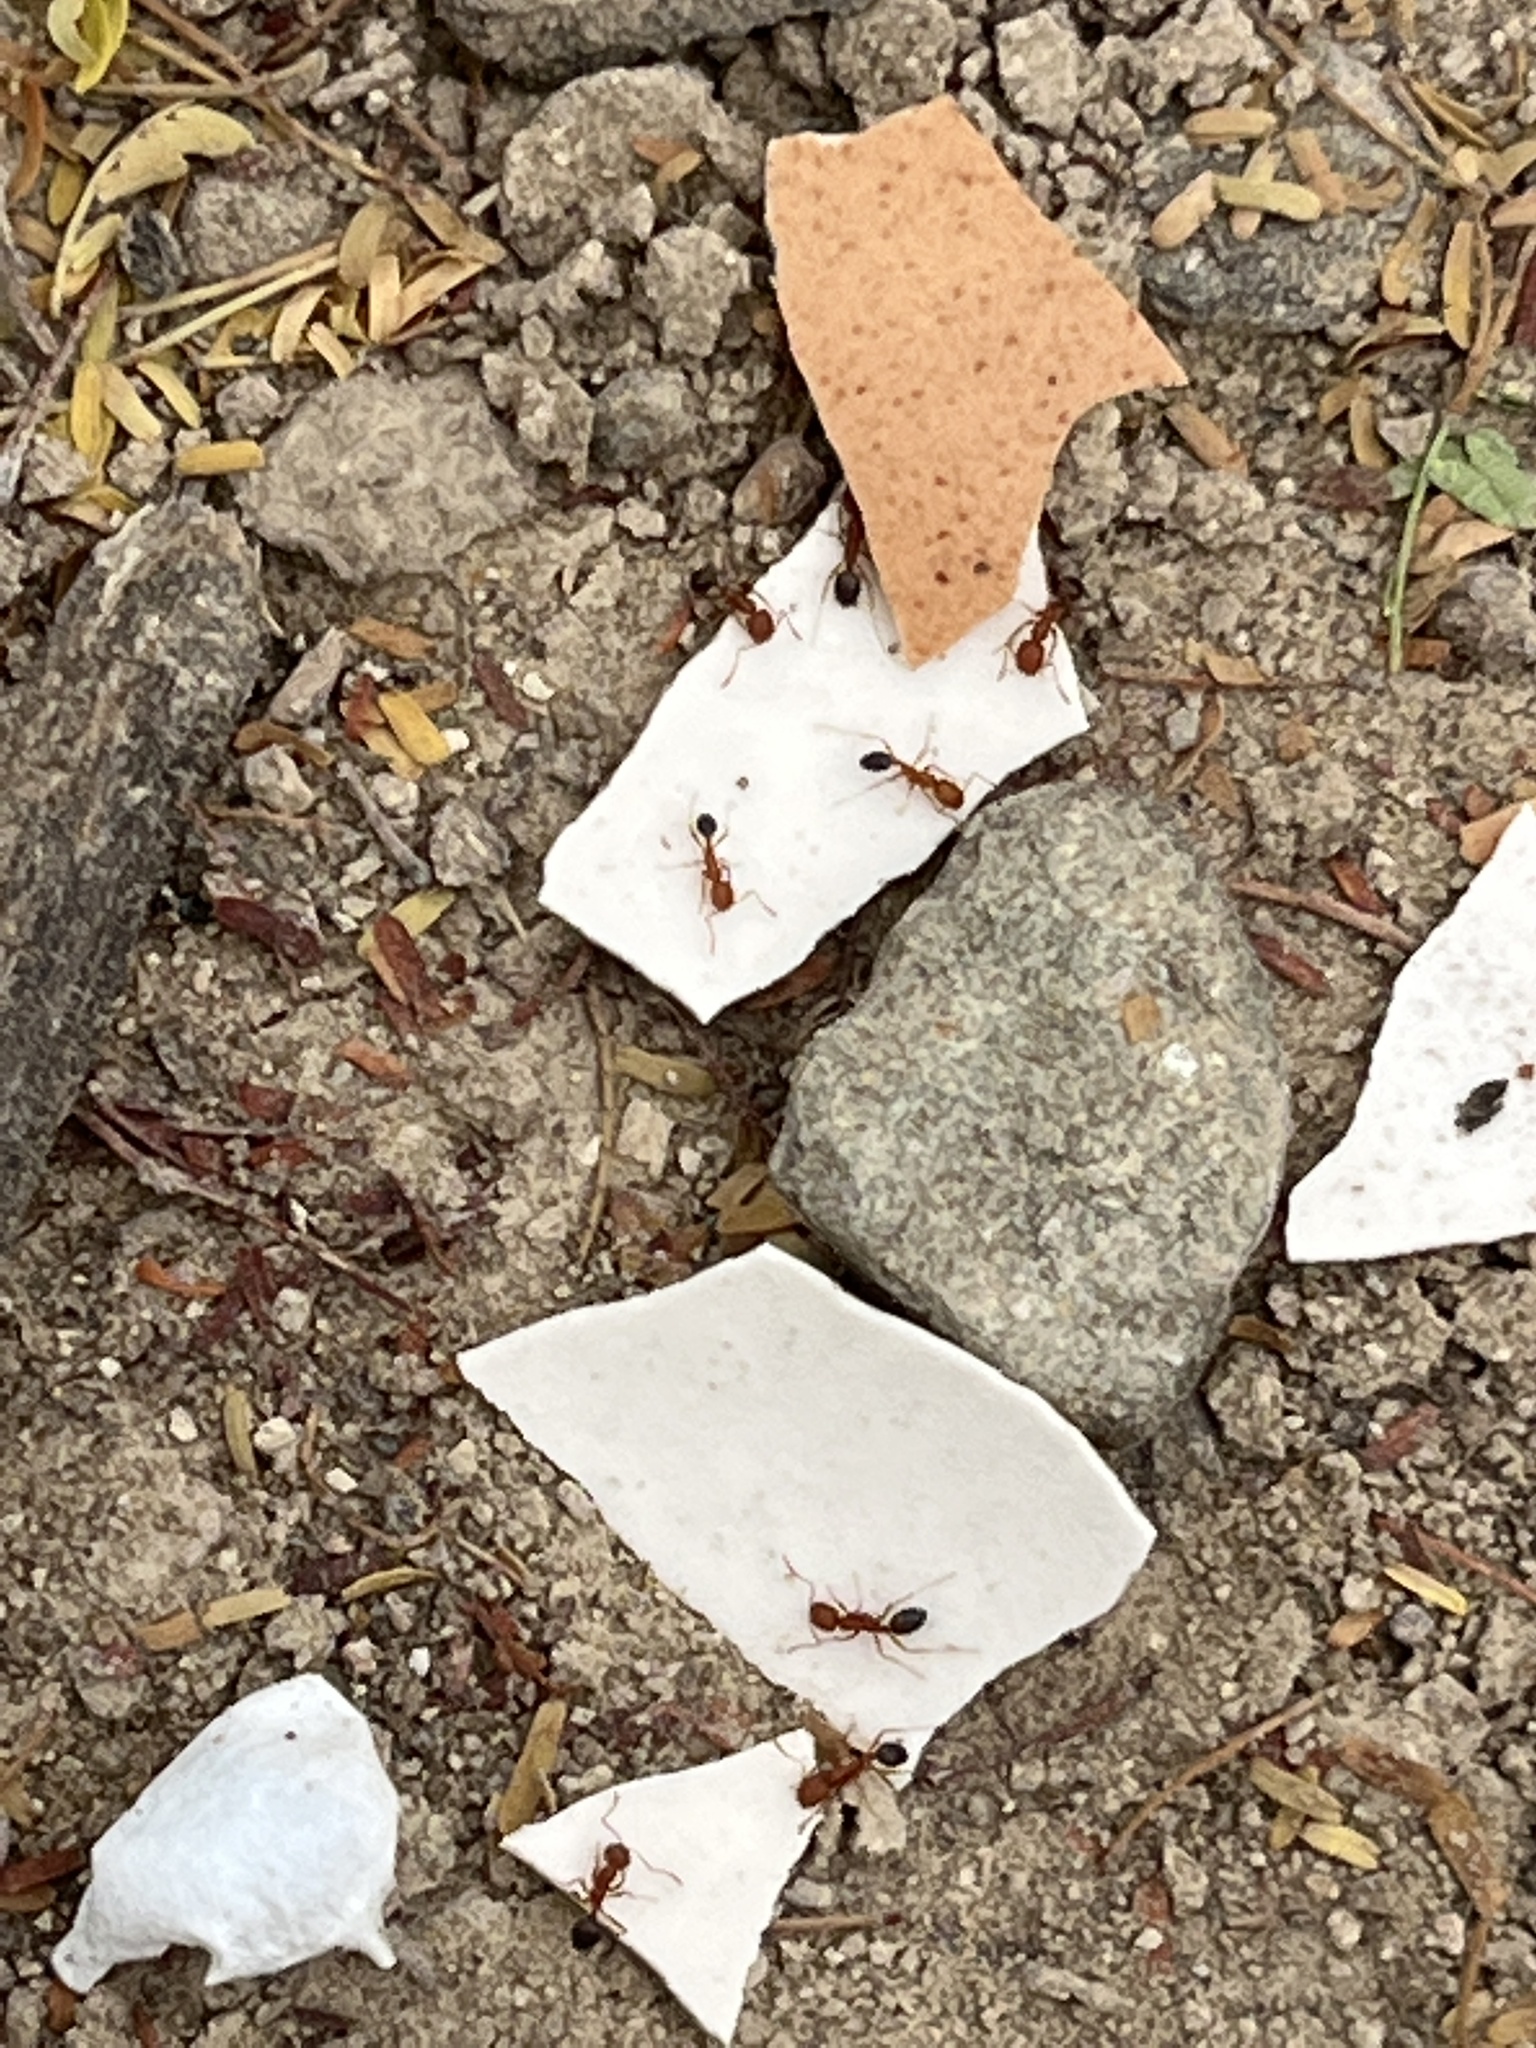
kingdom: Animalia
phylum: Arthropoda
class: Insecta
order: Hymenoptera
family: Formicidae
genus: Monomorium
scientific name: Monomorium bicolor
